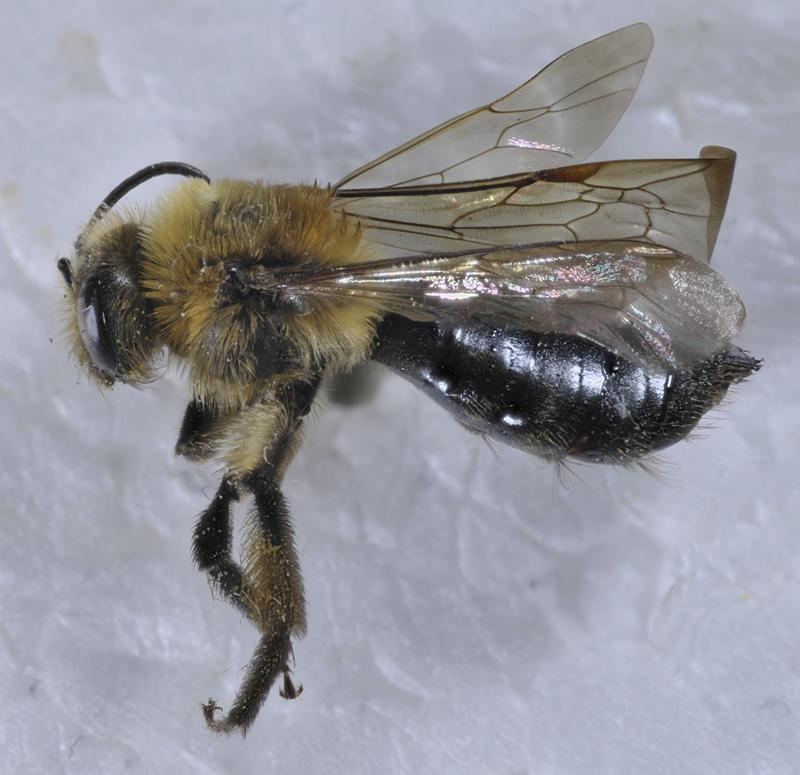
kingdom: Animalia
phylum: Arthropoda
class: Insecta
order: Hymenoptera
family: Andrenidae
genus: Andrena
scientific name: Andrena dunningi
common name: Dunning's miner
